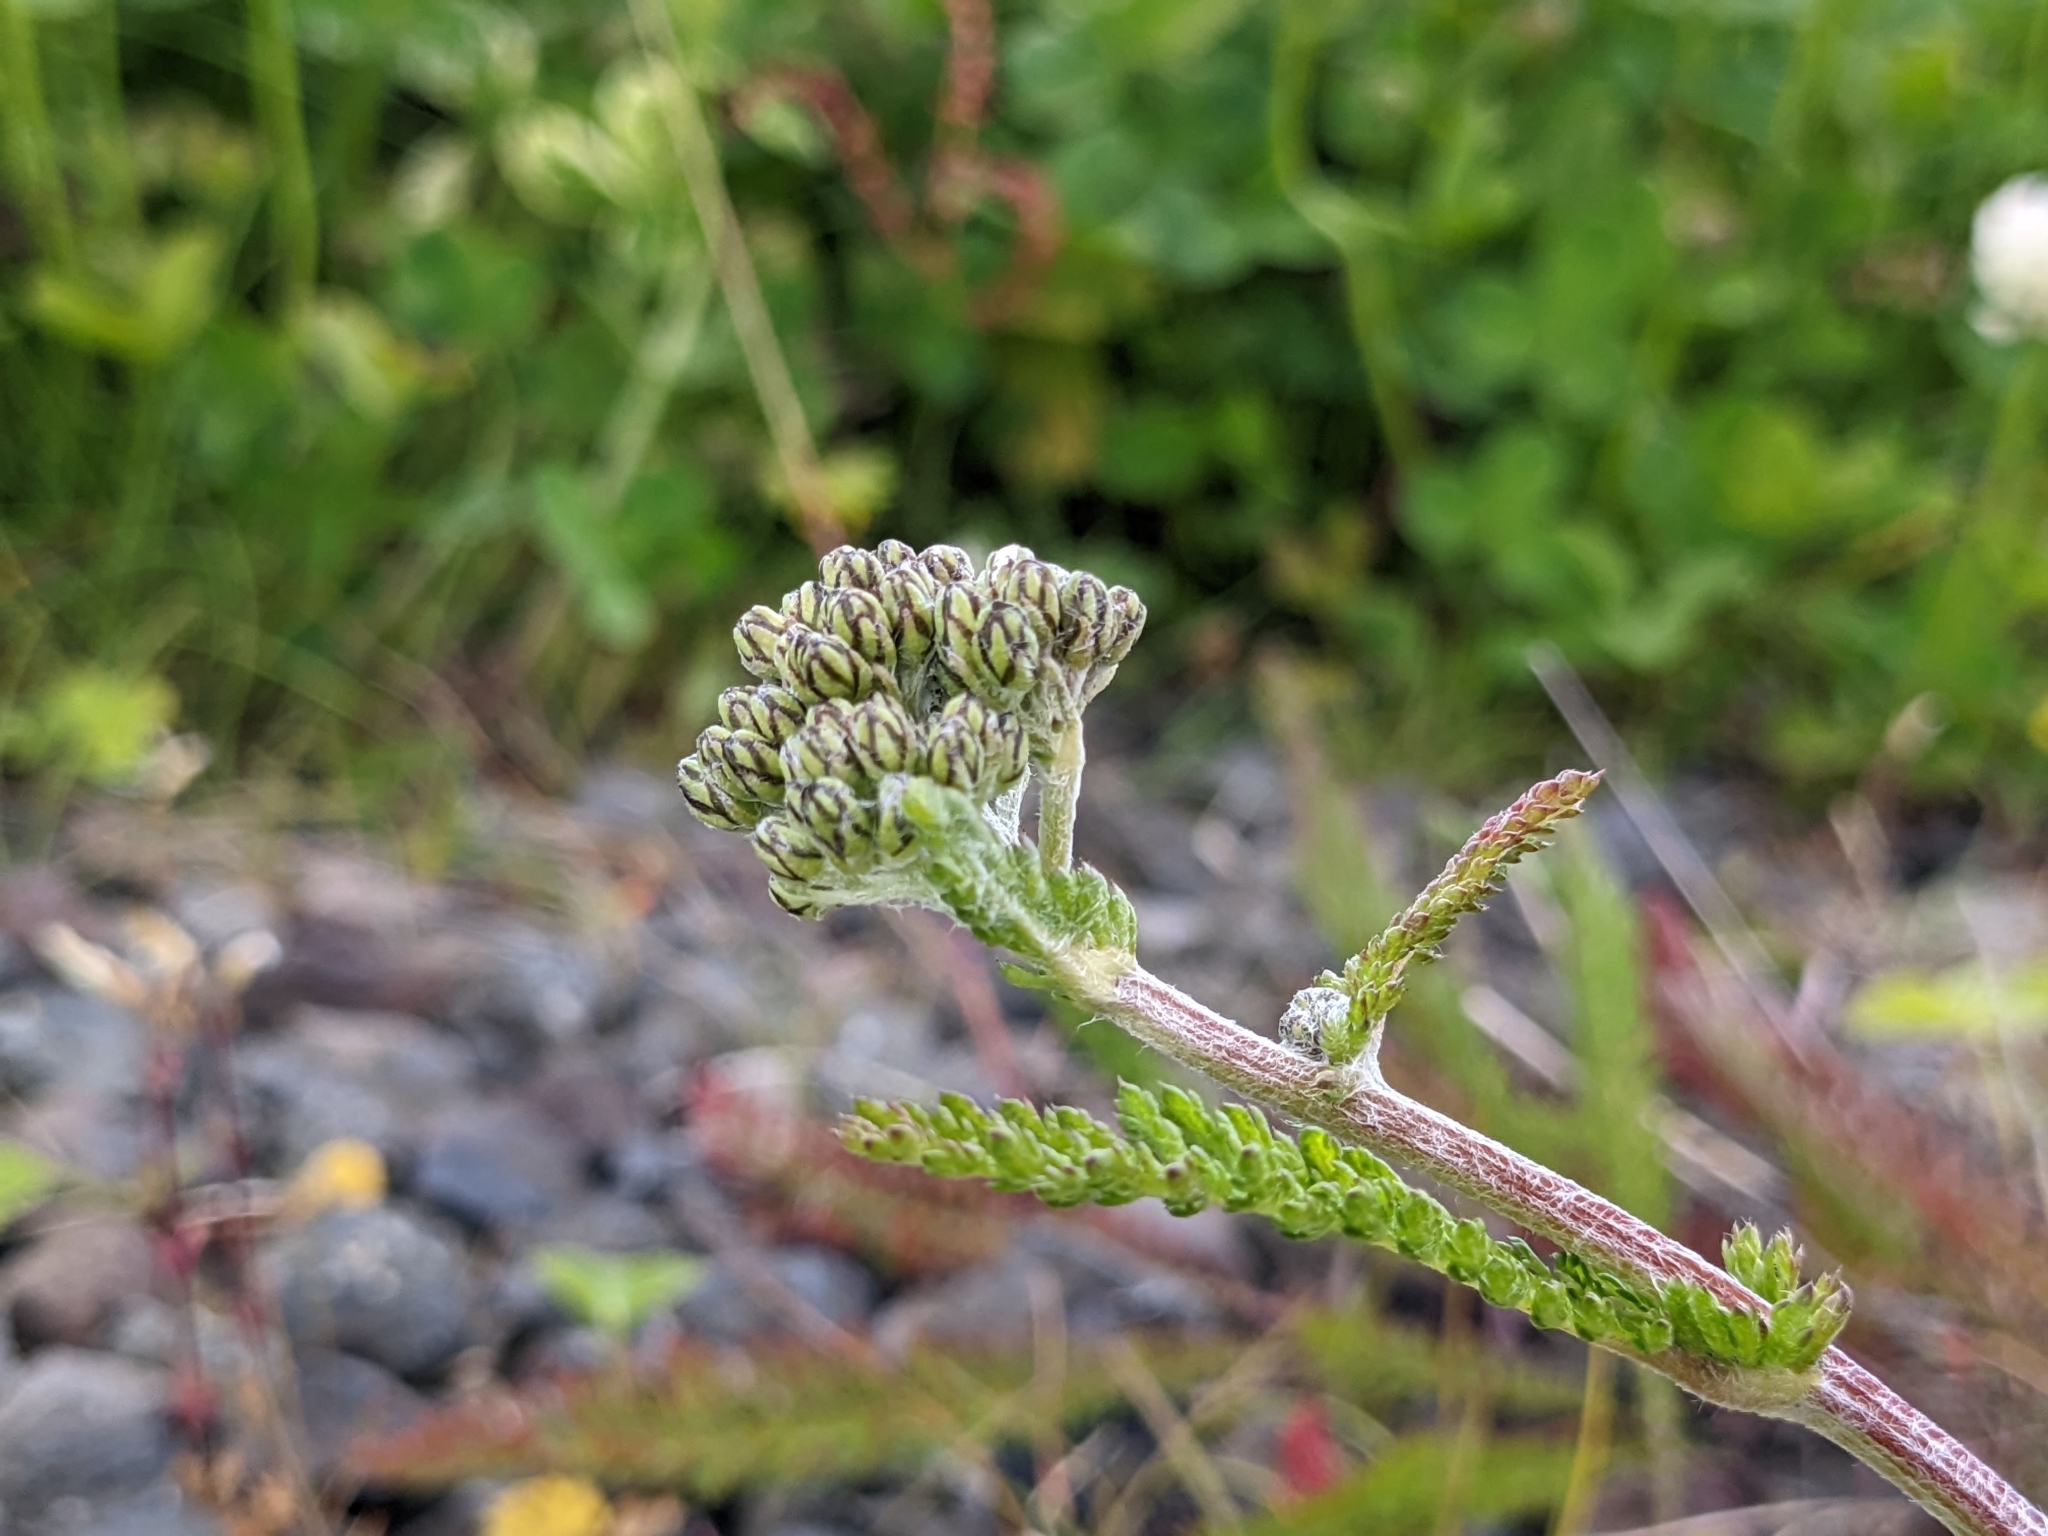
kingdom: Plantae
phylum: Tracheophyta
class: Magnoliopsida
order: Asterales
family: Asteraceae
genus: Achillea
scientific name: Achillea millefolium
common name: Yarrow
